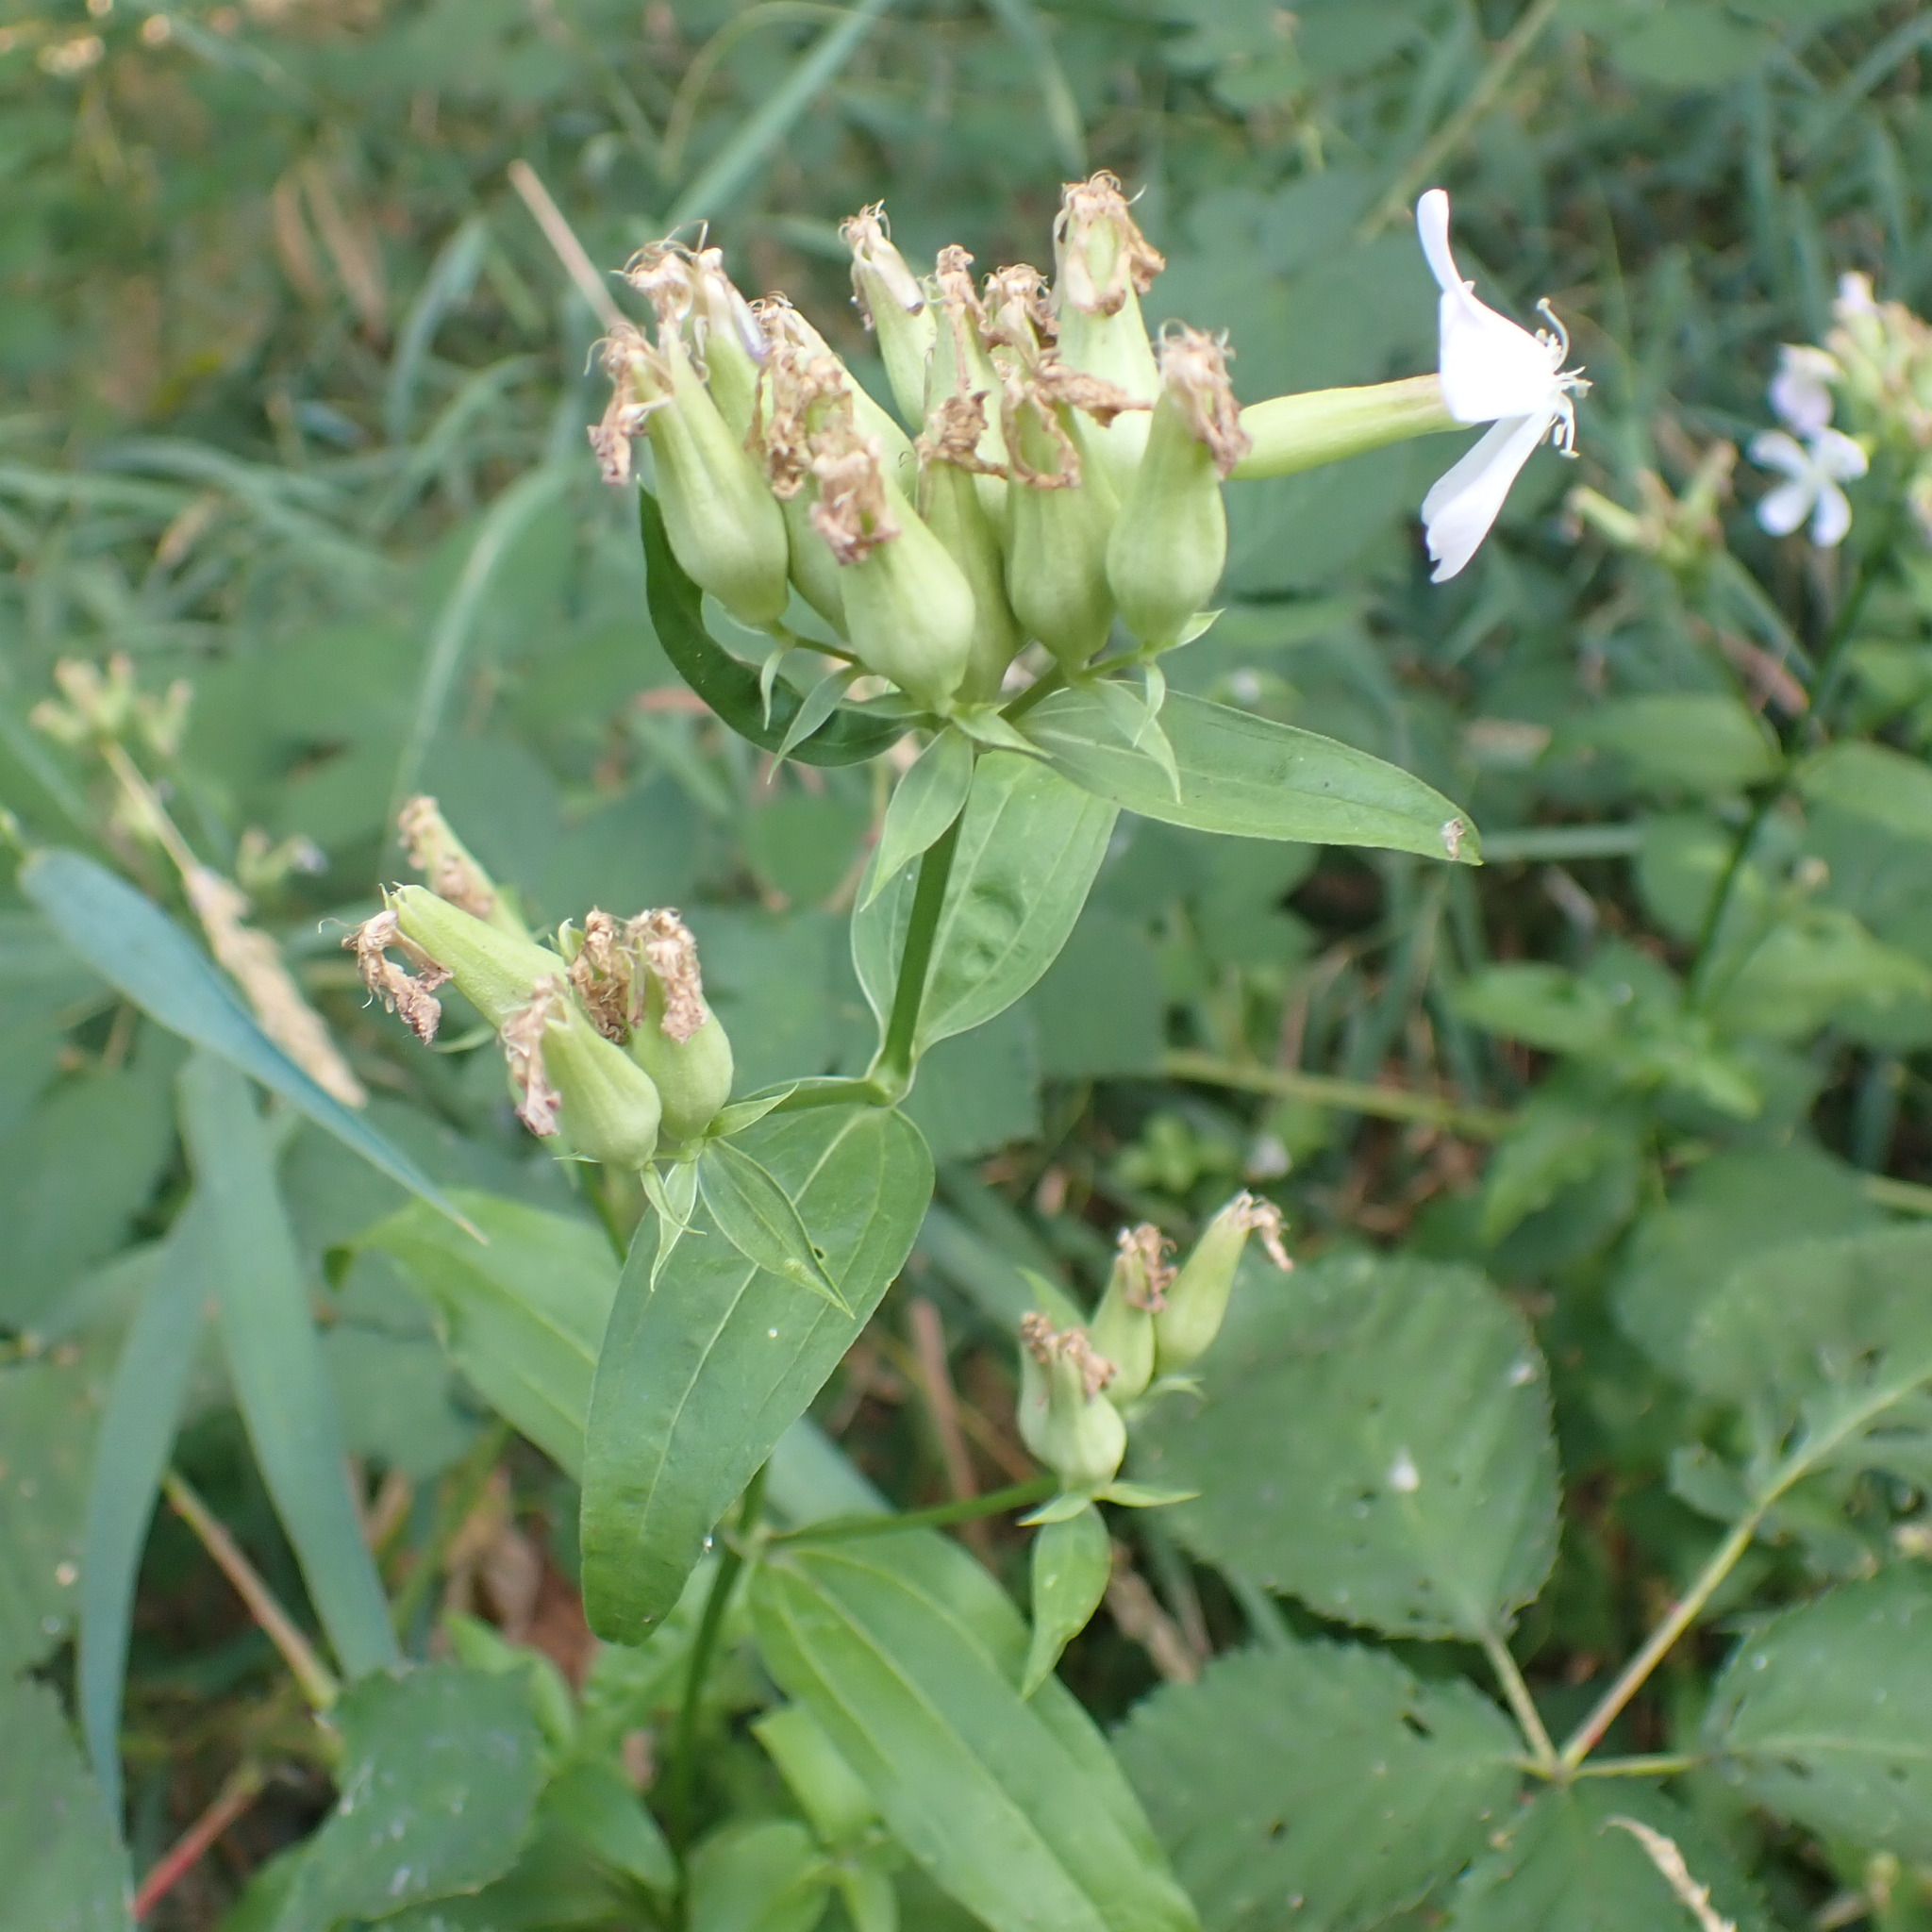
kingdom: Plantae
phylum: Tracheophyta
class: Magnoliopsida
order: Caryophyllales
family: Caryophyllaceae
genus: Saponaria
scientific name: Saponaria officinalis
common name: Soapwort
